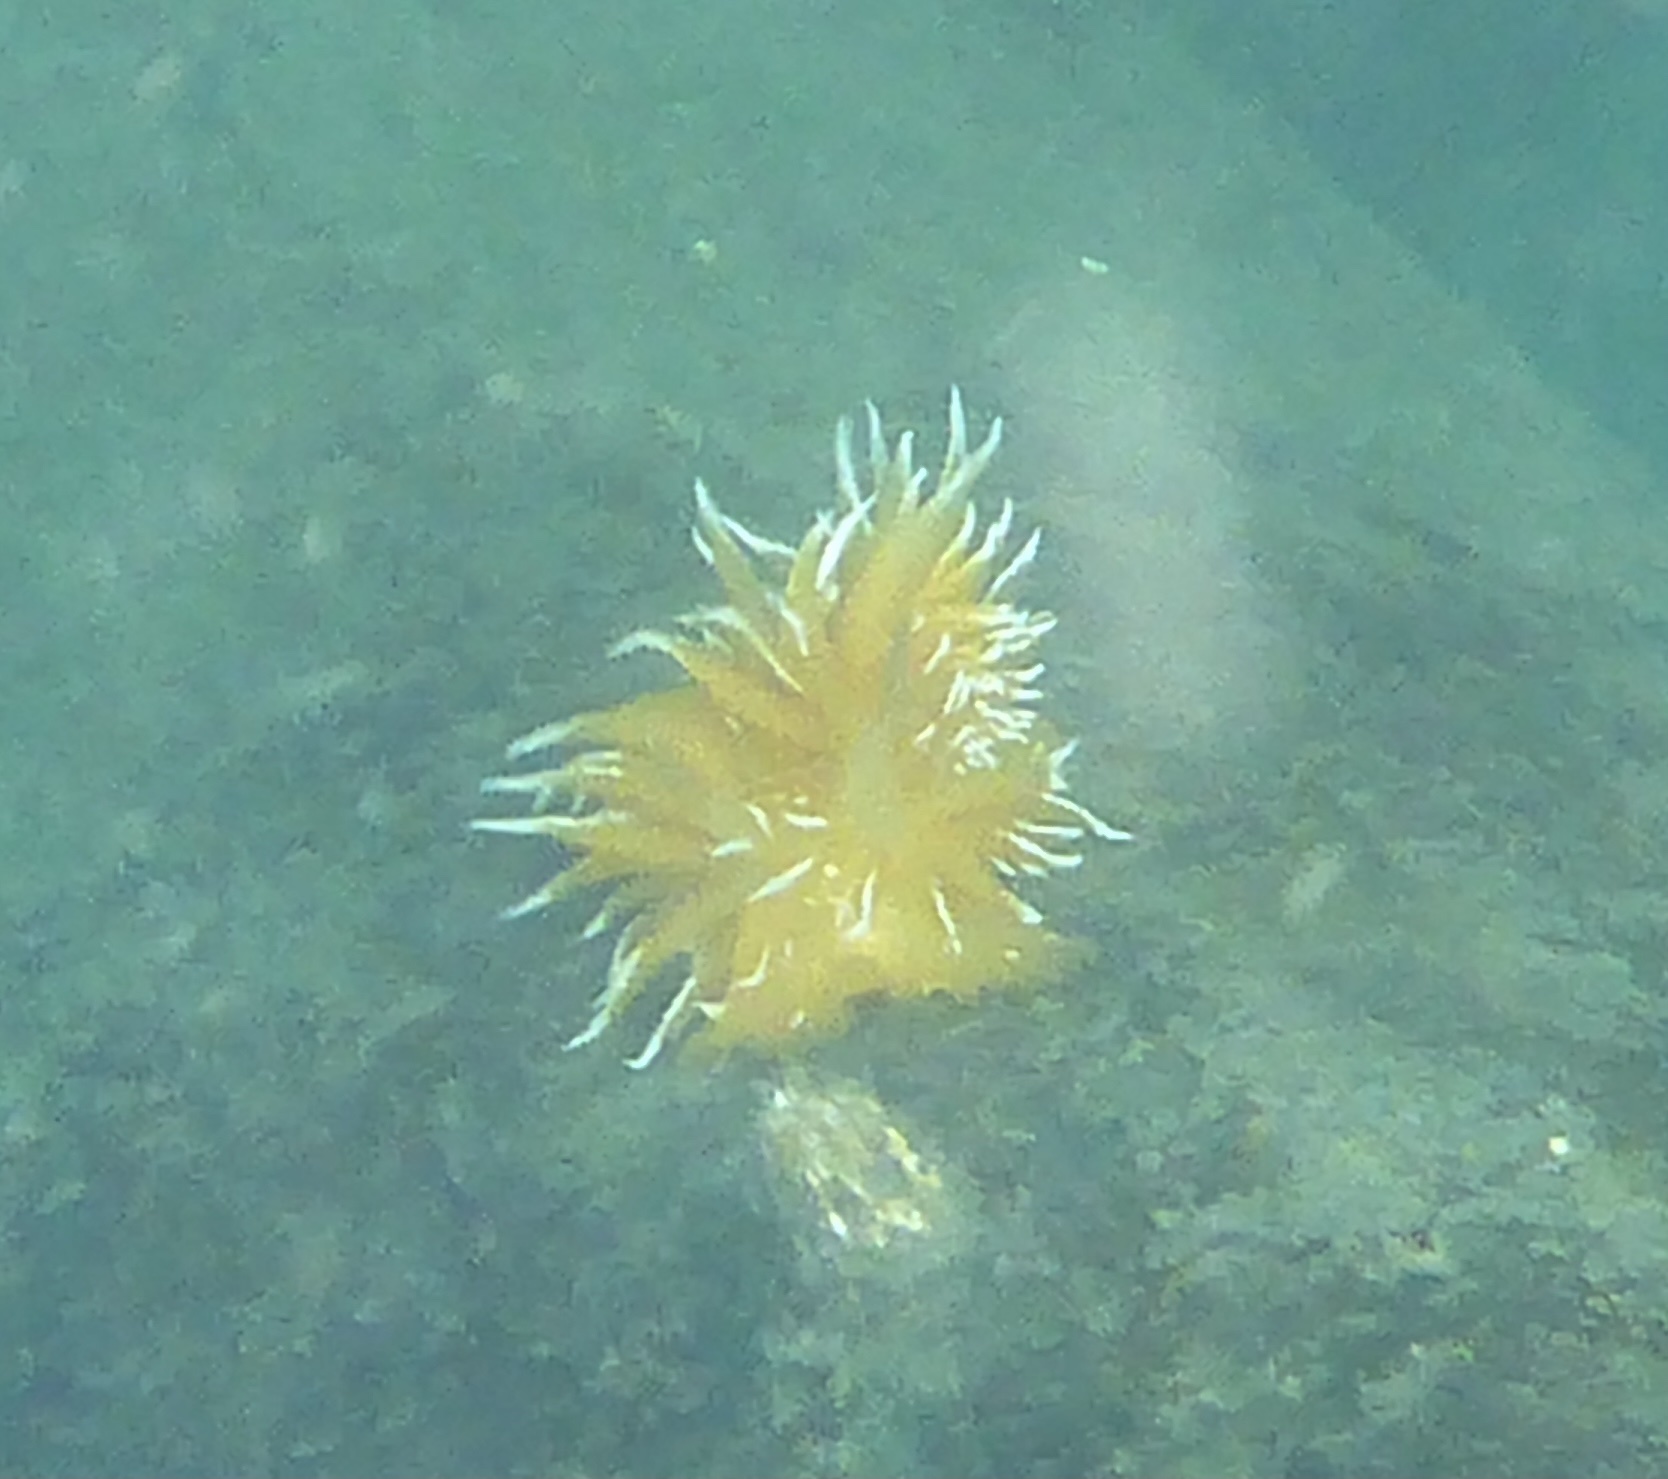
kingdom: Animalia
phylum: Mollusca
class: Gastropoda
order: Nudibranchia
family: Dironidae
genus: Dirona
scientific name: Dirona pellucida
